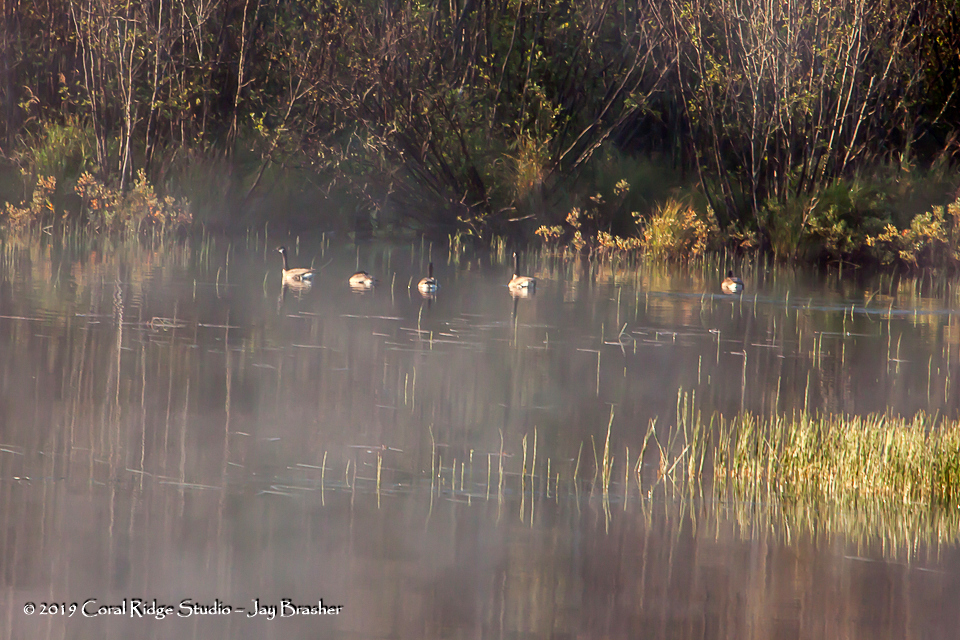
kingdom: Animalia
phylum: Chordata
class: Aves
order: Anseriformes
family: Anatidae
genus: Branta
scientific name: Branta canadensis
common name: Canada goose
